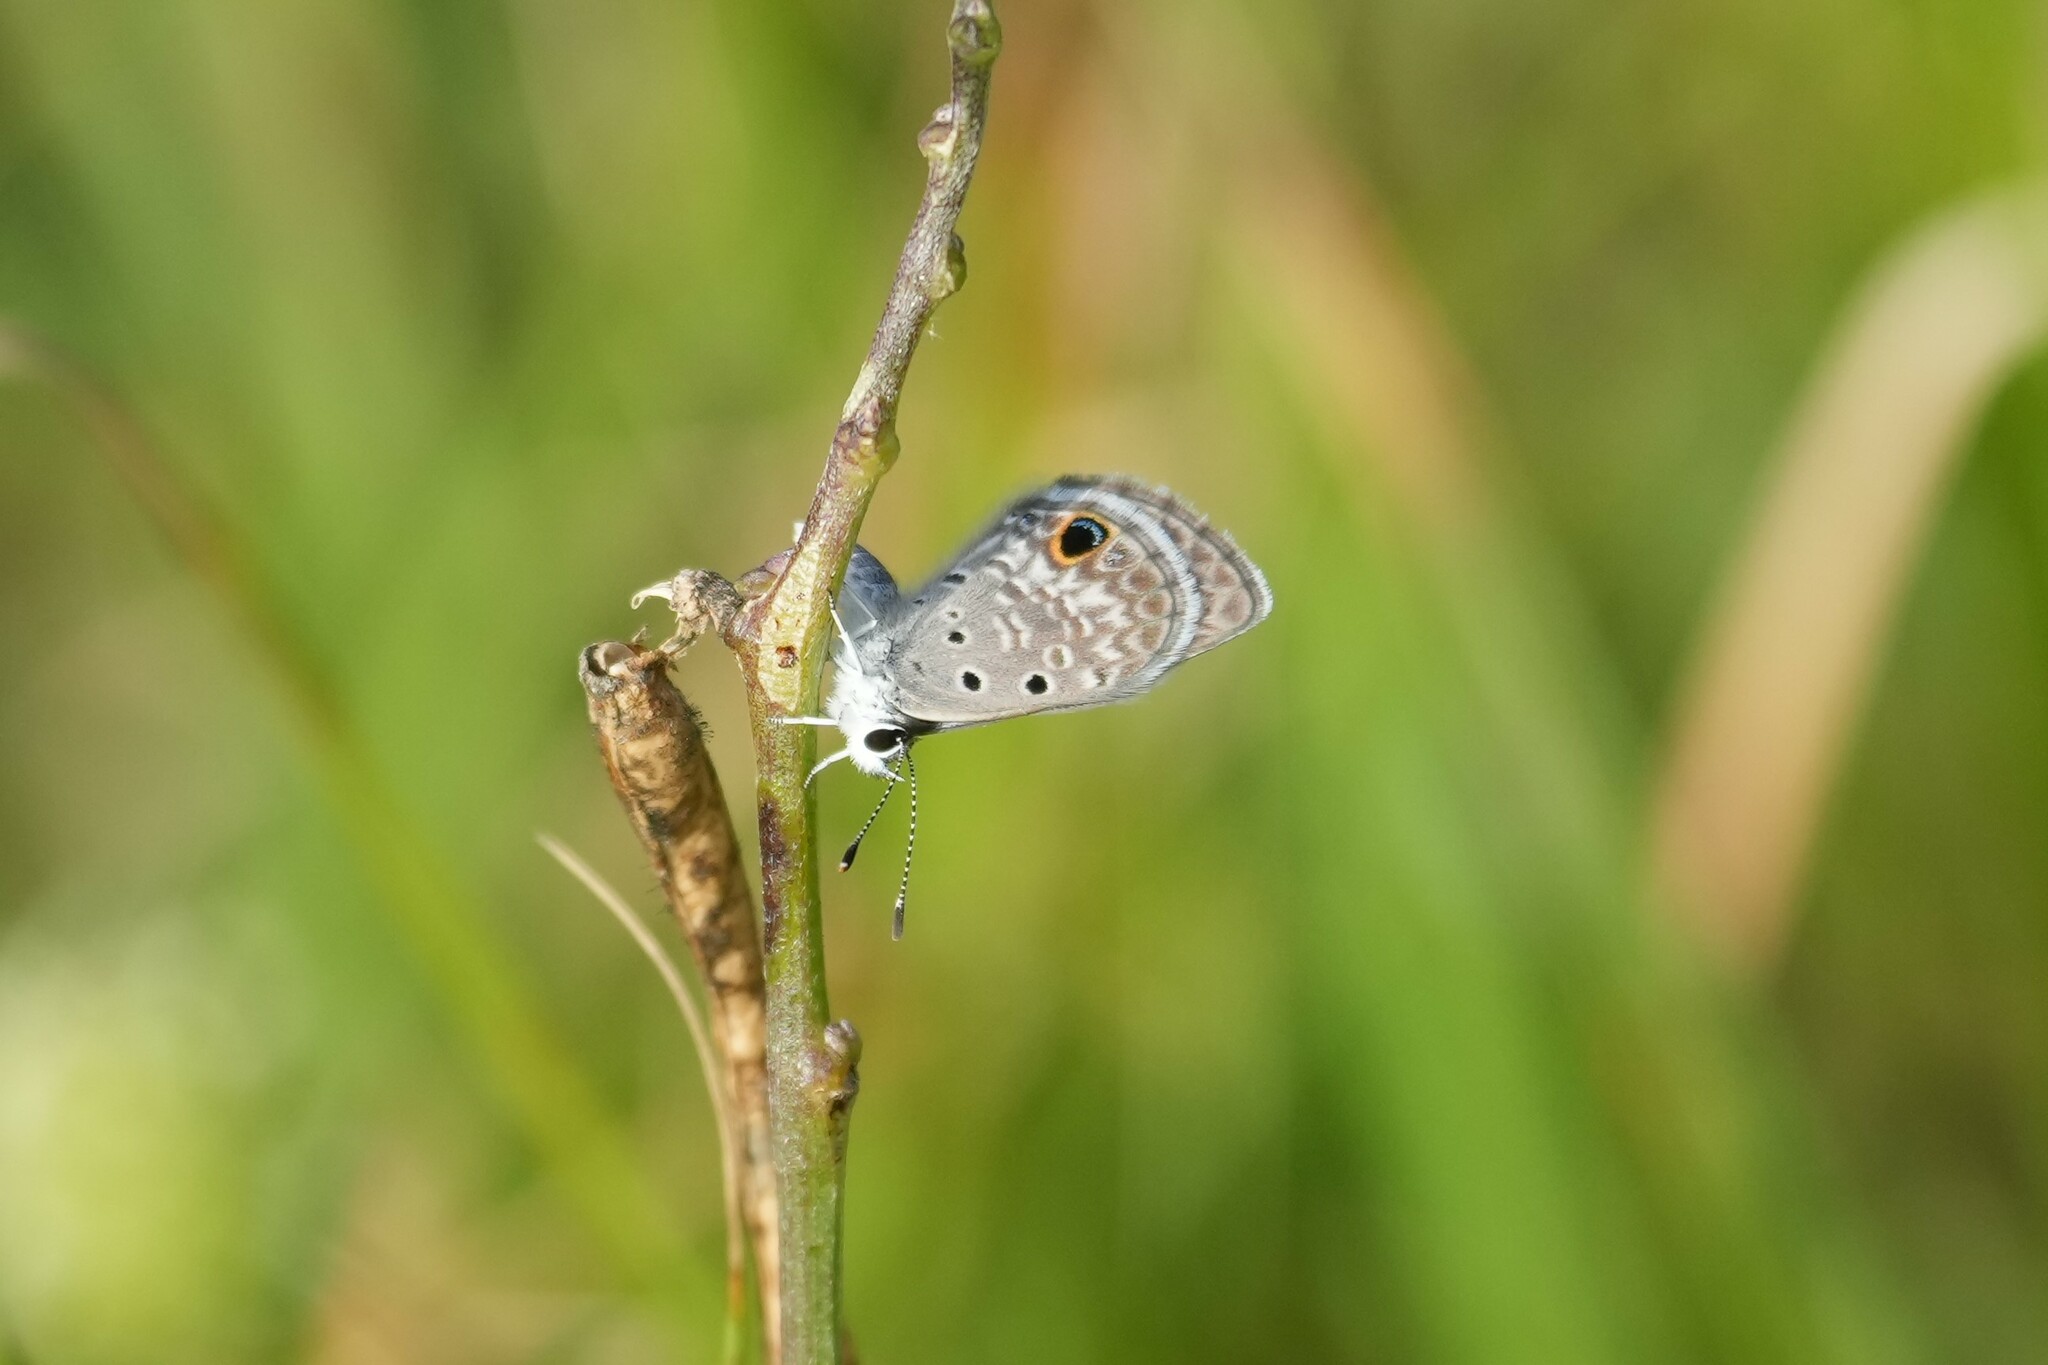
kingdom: Animalia
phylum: Arthropoda
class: Insecta
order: Lepidoptera
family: Lycaenidae
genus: Hemiargus
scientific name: Hemiargus ceraunus
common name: Ceraunus blue
